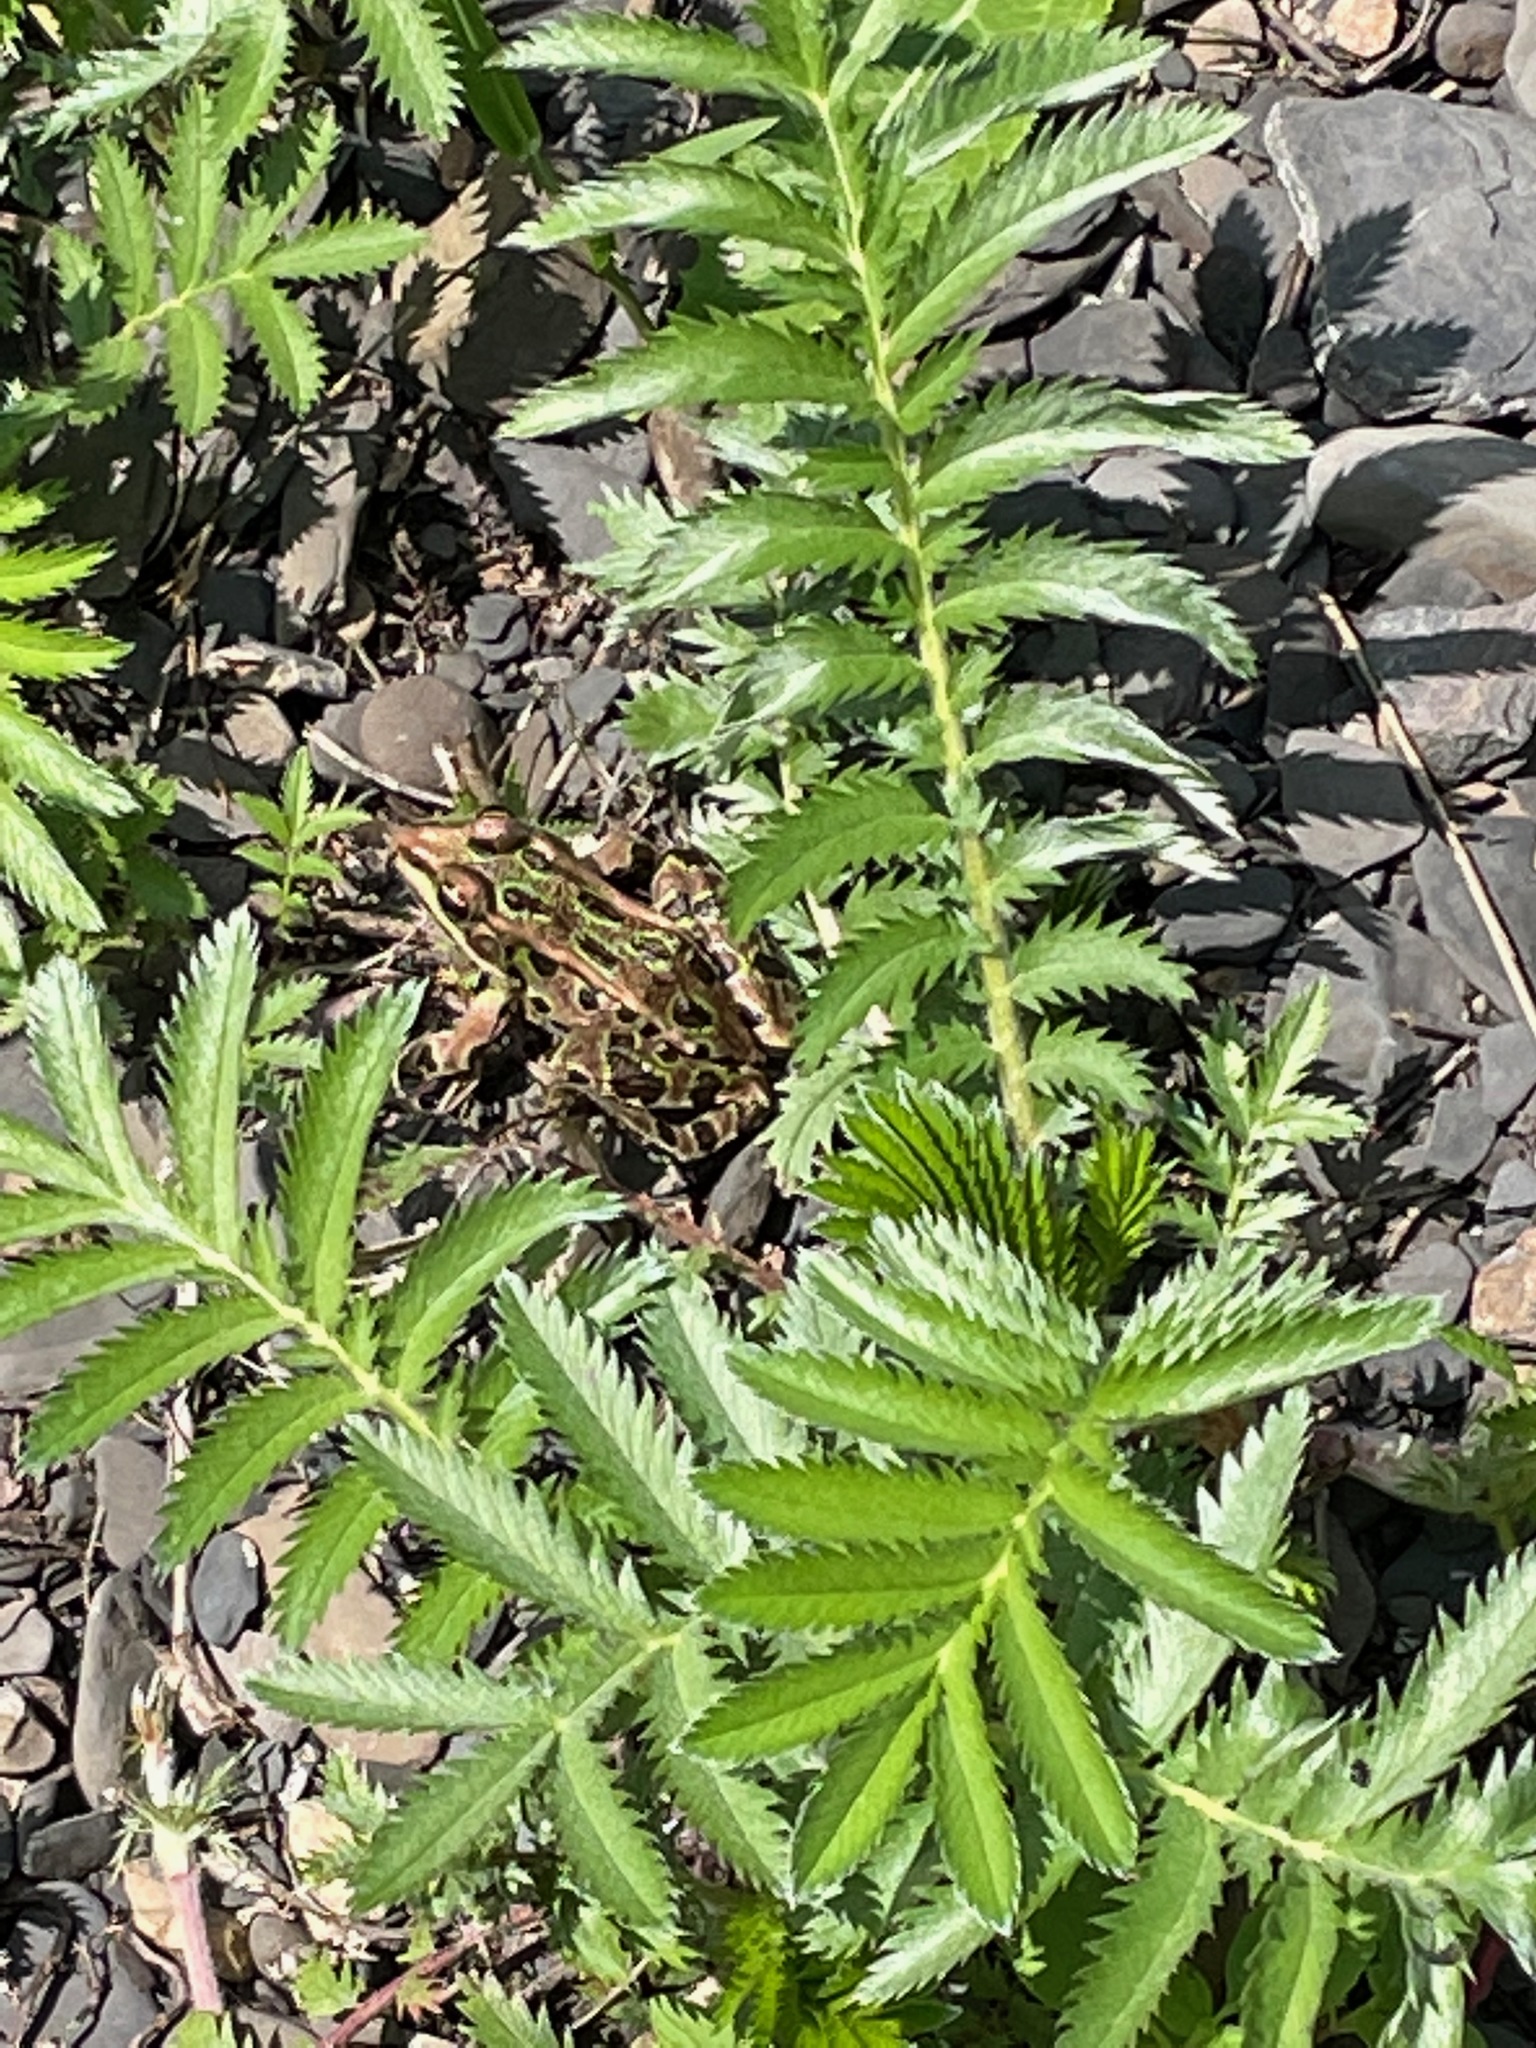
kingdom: Plantae
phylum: Tracheophyta
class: Magnoliopsida
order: Rosales
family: Rosaceae
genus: Argentina
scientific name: Argentina anserina
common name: Common silverweed
